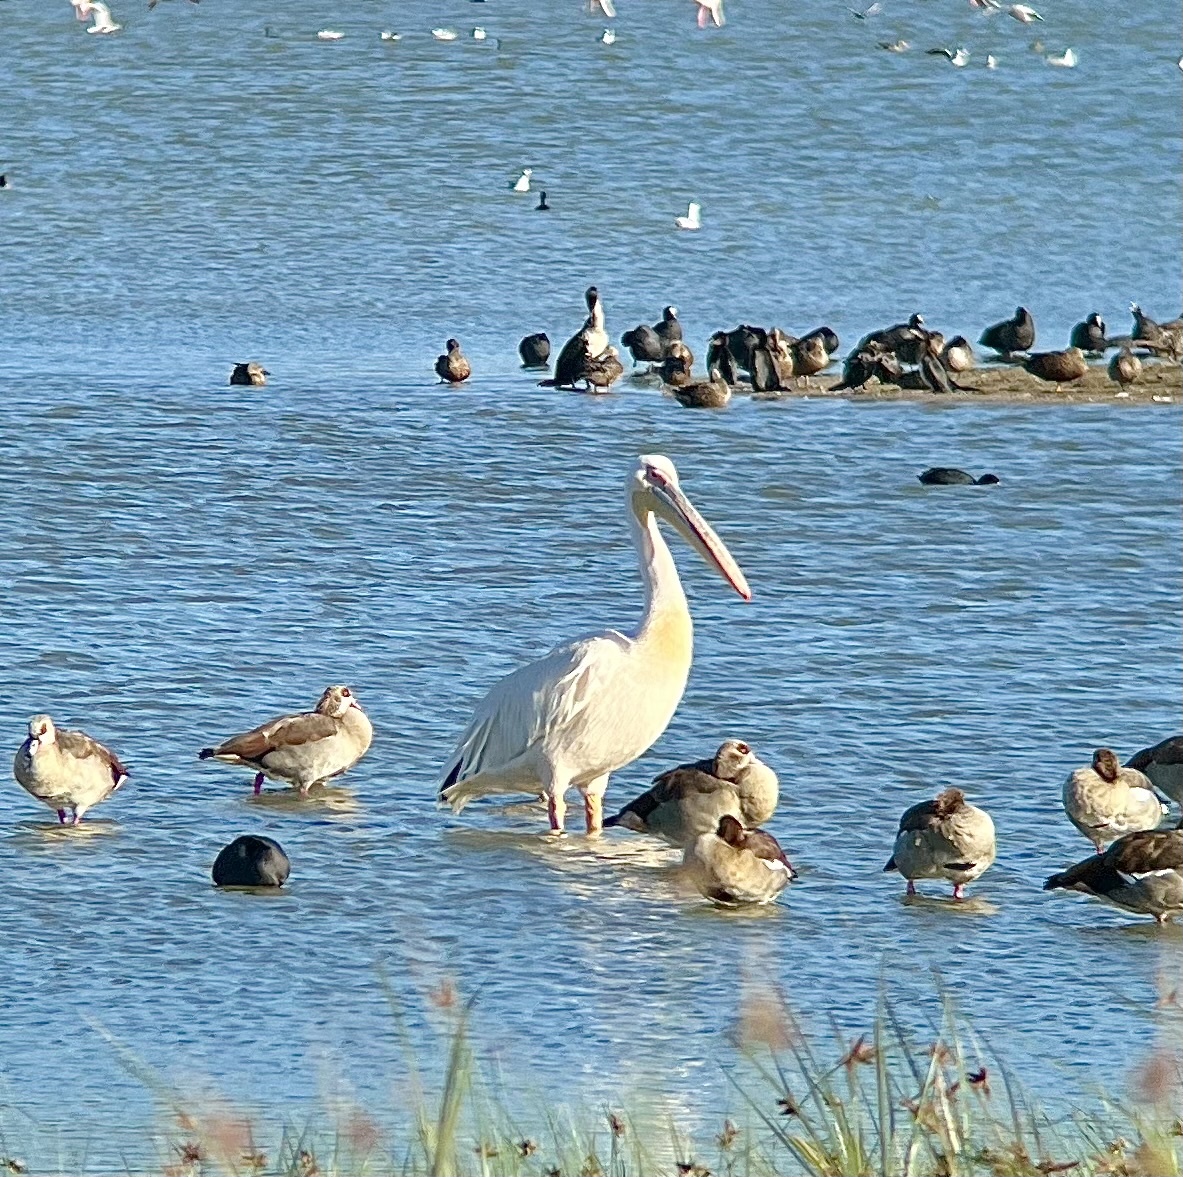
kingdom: Animalia
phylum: Chordata
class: Aves
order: Pelecaniformes
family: Pelecanidae
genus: Pelecanus
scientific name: Pelecanus onocrotalus
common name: Great white pelican
